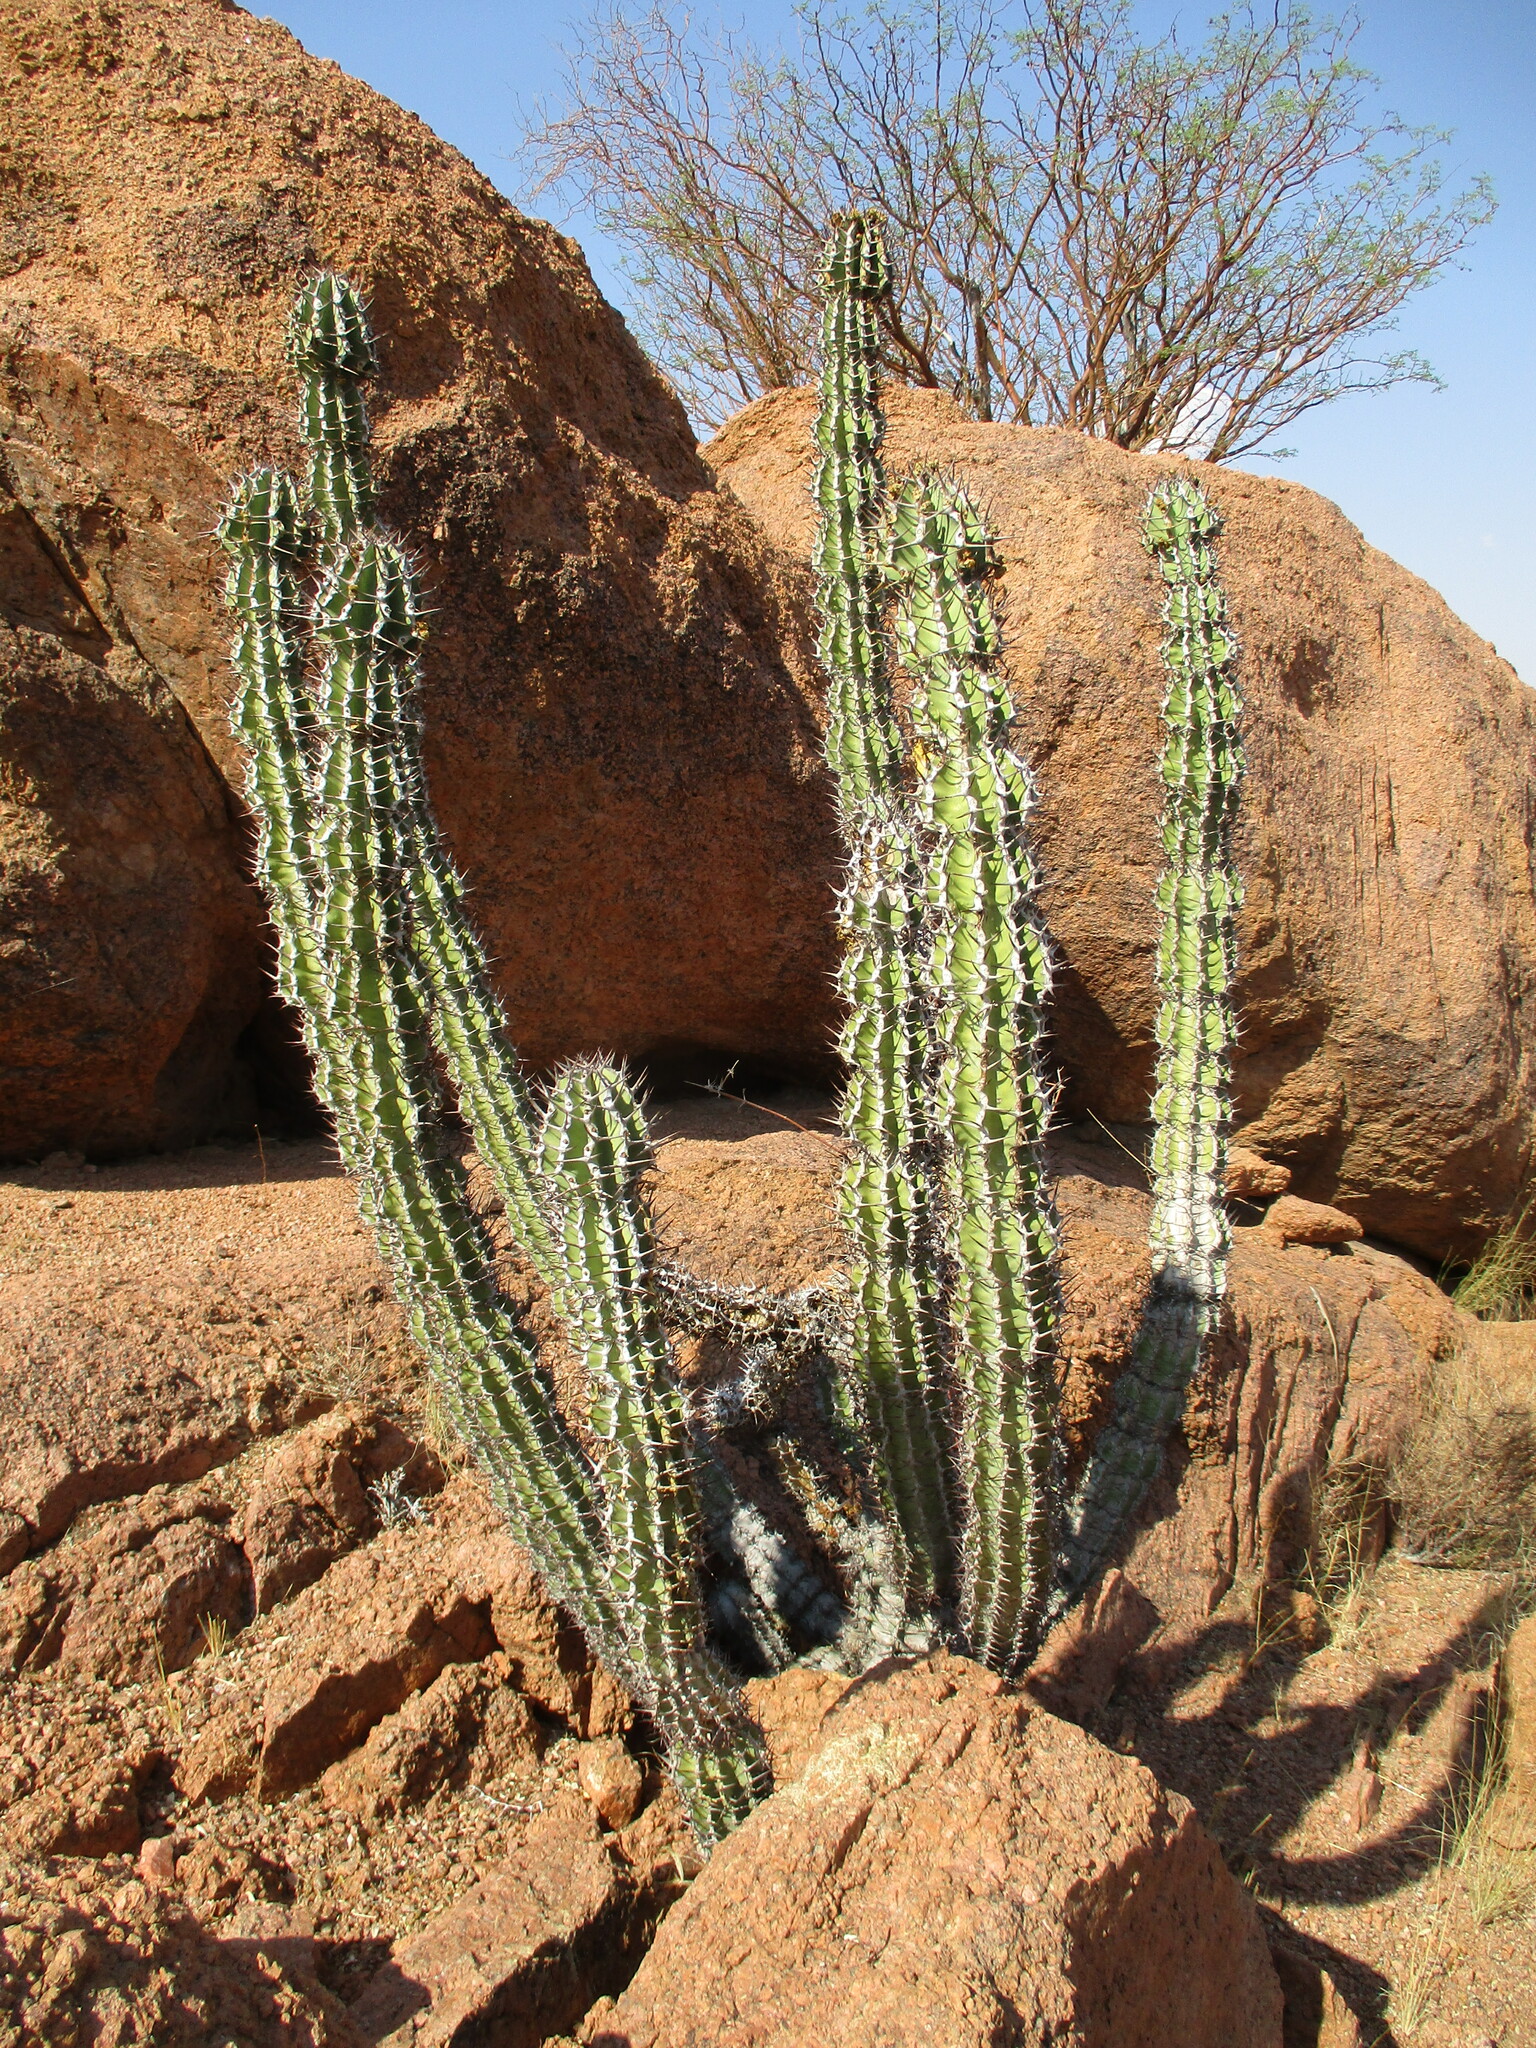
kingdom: Plantae
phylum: Tracheophyta
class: Magnoliopsida
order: Malpighiales
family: Euphorbiaceae
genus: Euphorbia
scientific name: Euphorbia virosa
